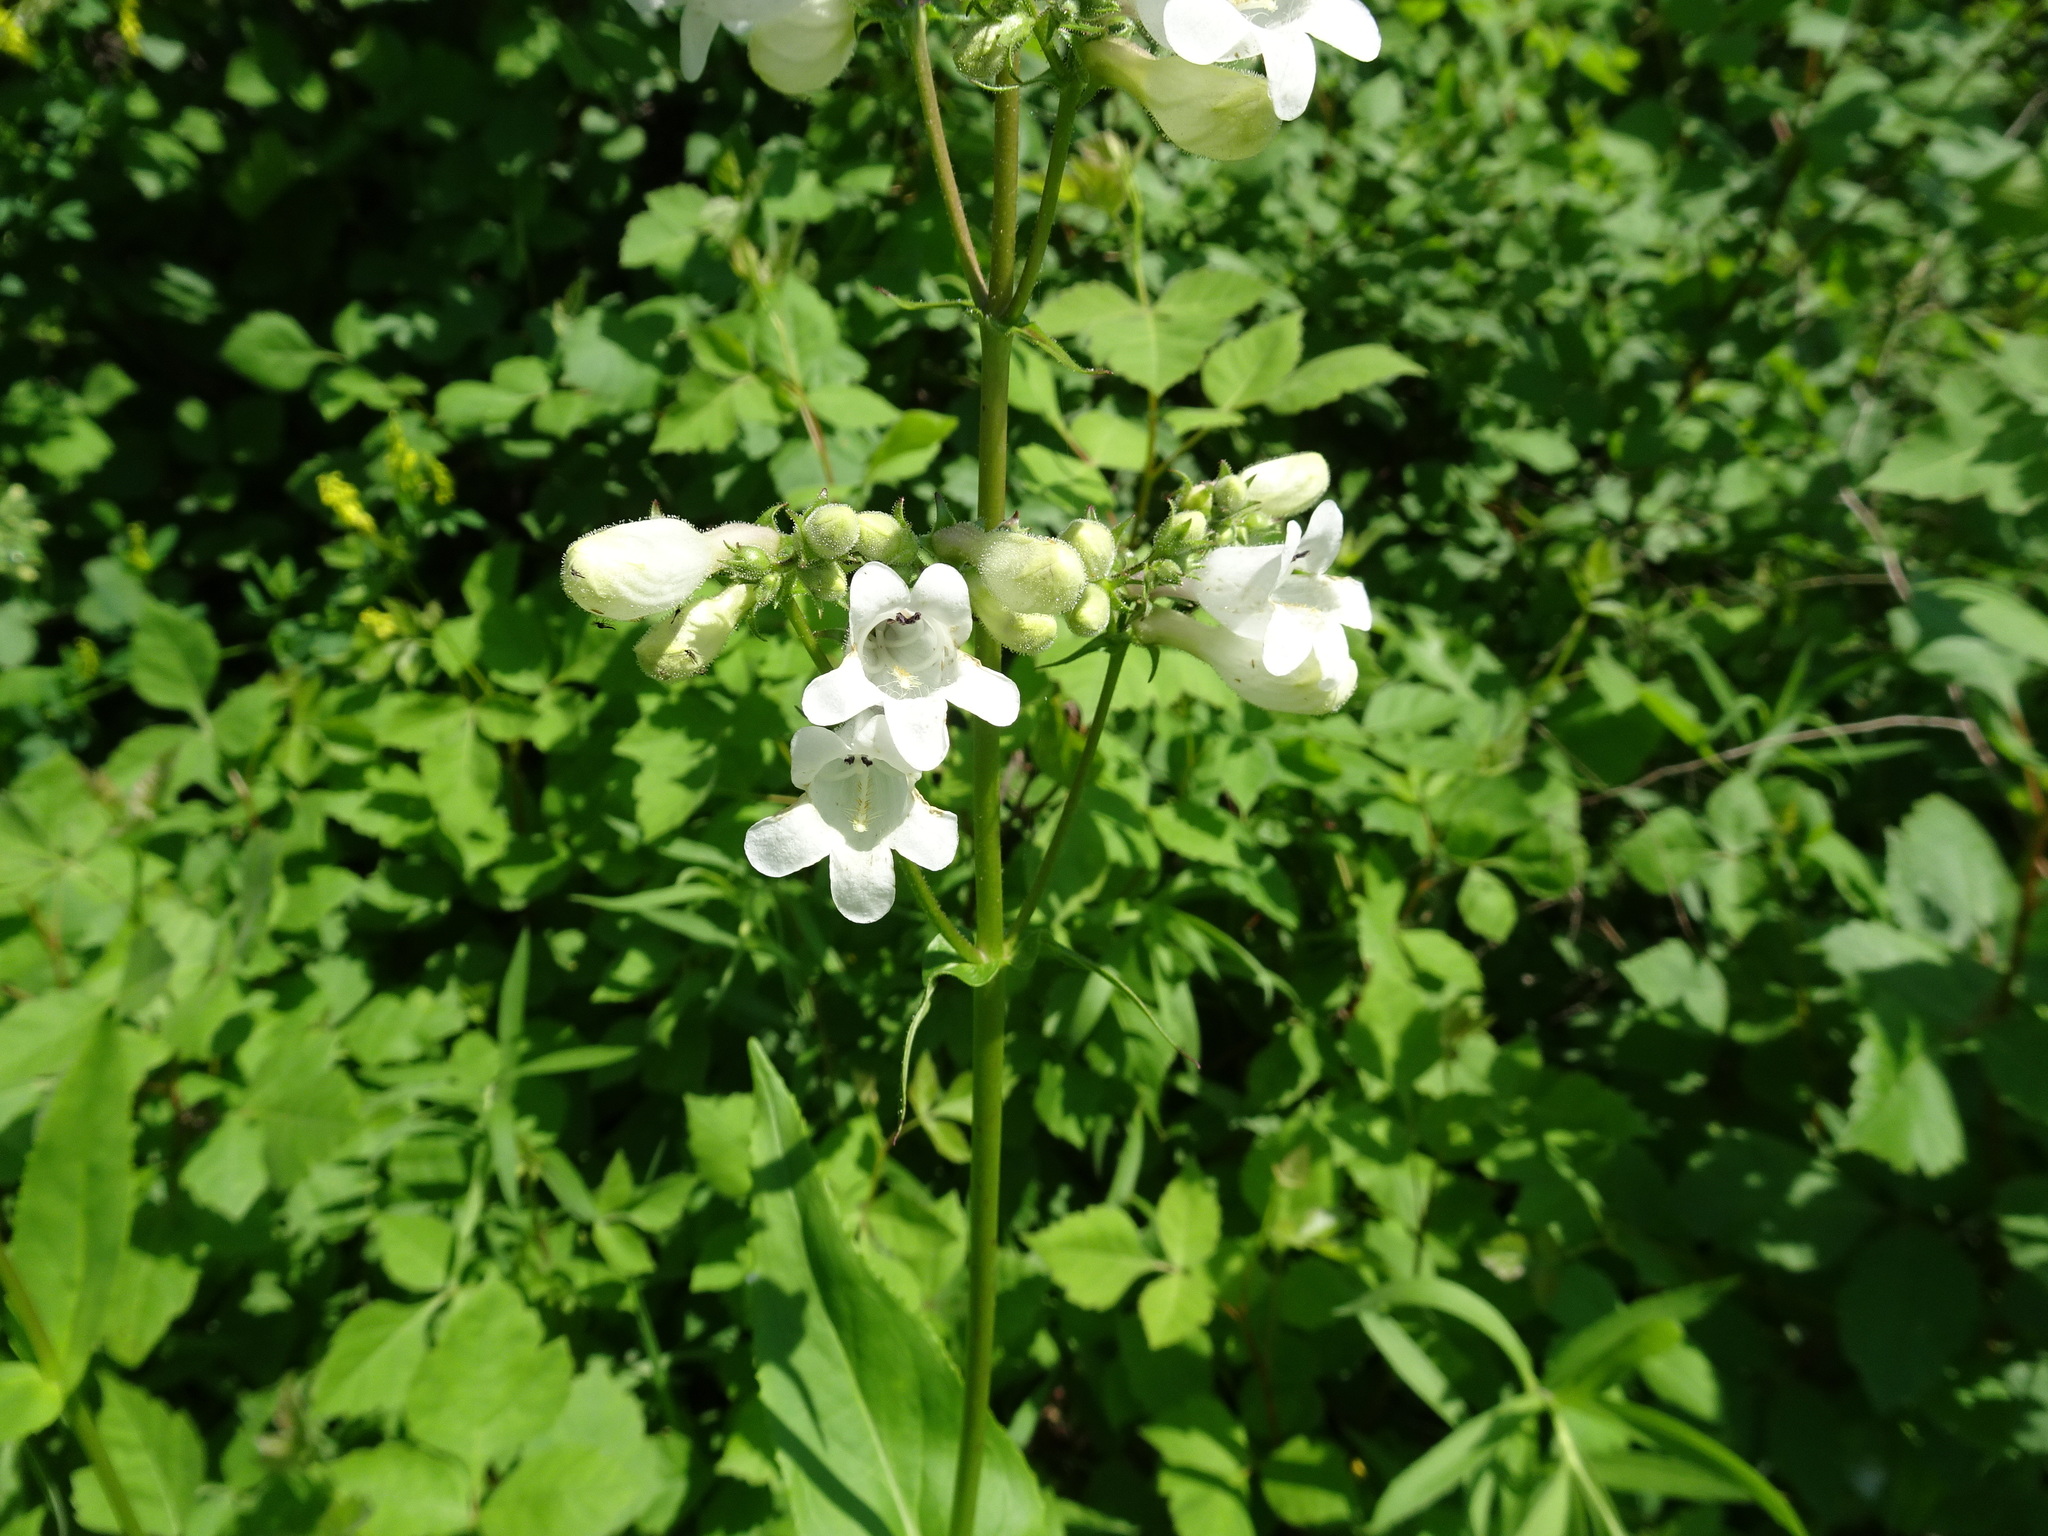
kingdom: Plantae
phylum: Tracheophyta
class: Magnoliopsida
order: Lamiales
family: Plantaginaceae
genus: Penstemon
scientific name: Penstemon digitalis
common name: Foxglove beardtongue
